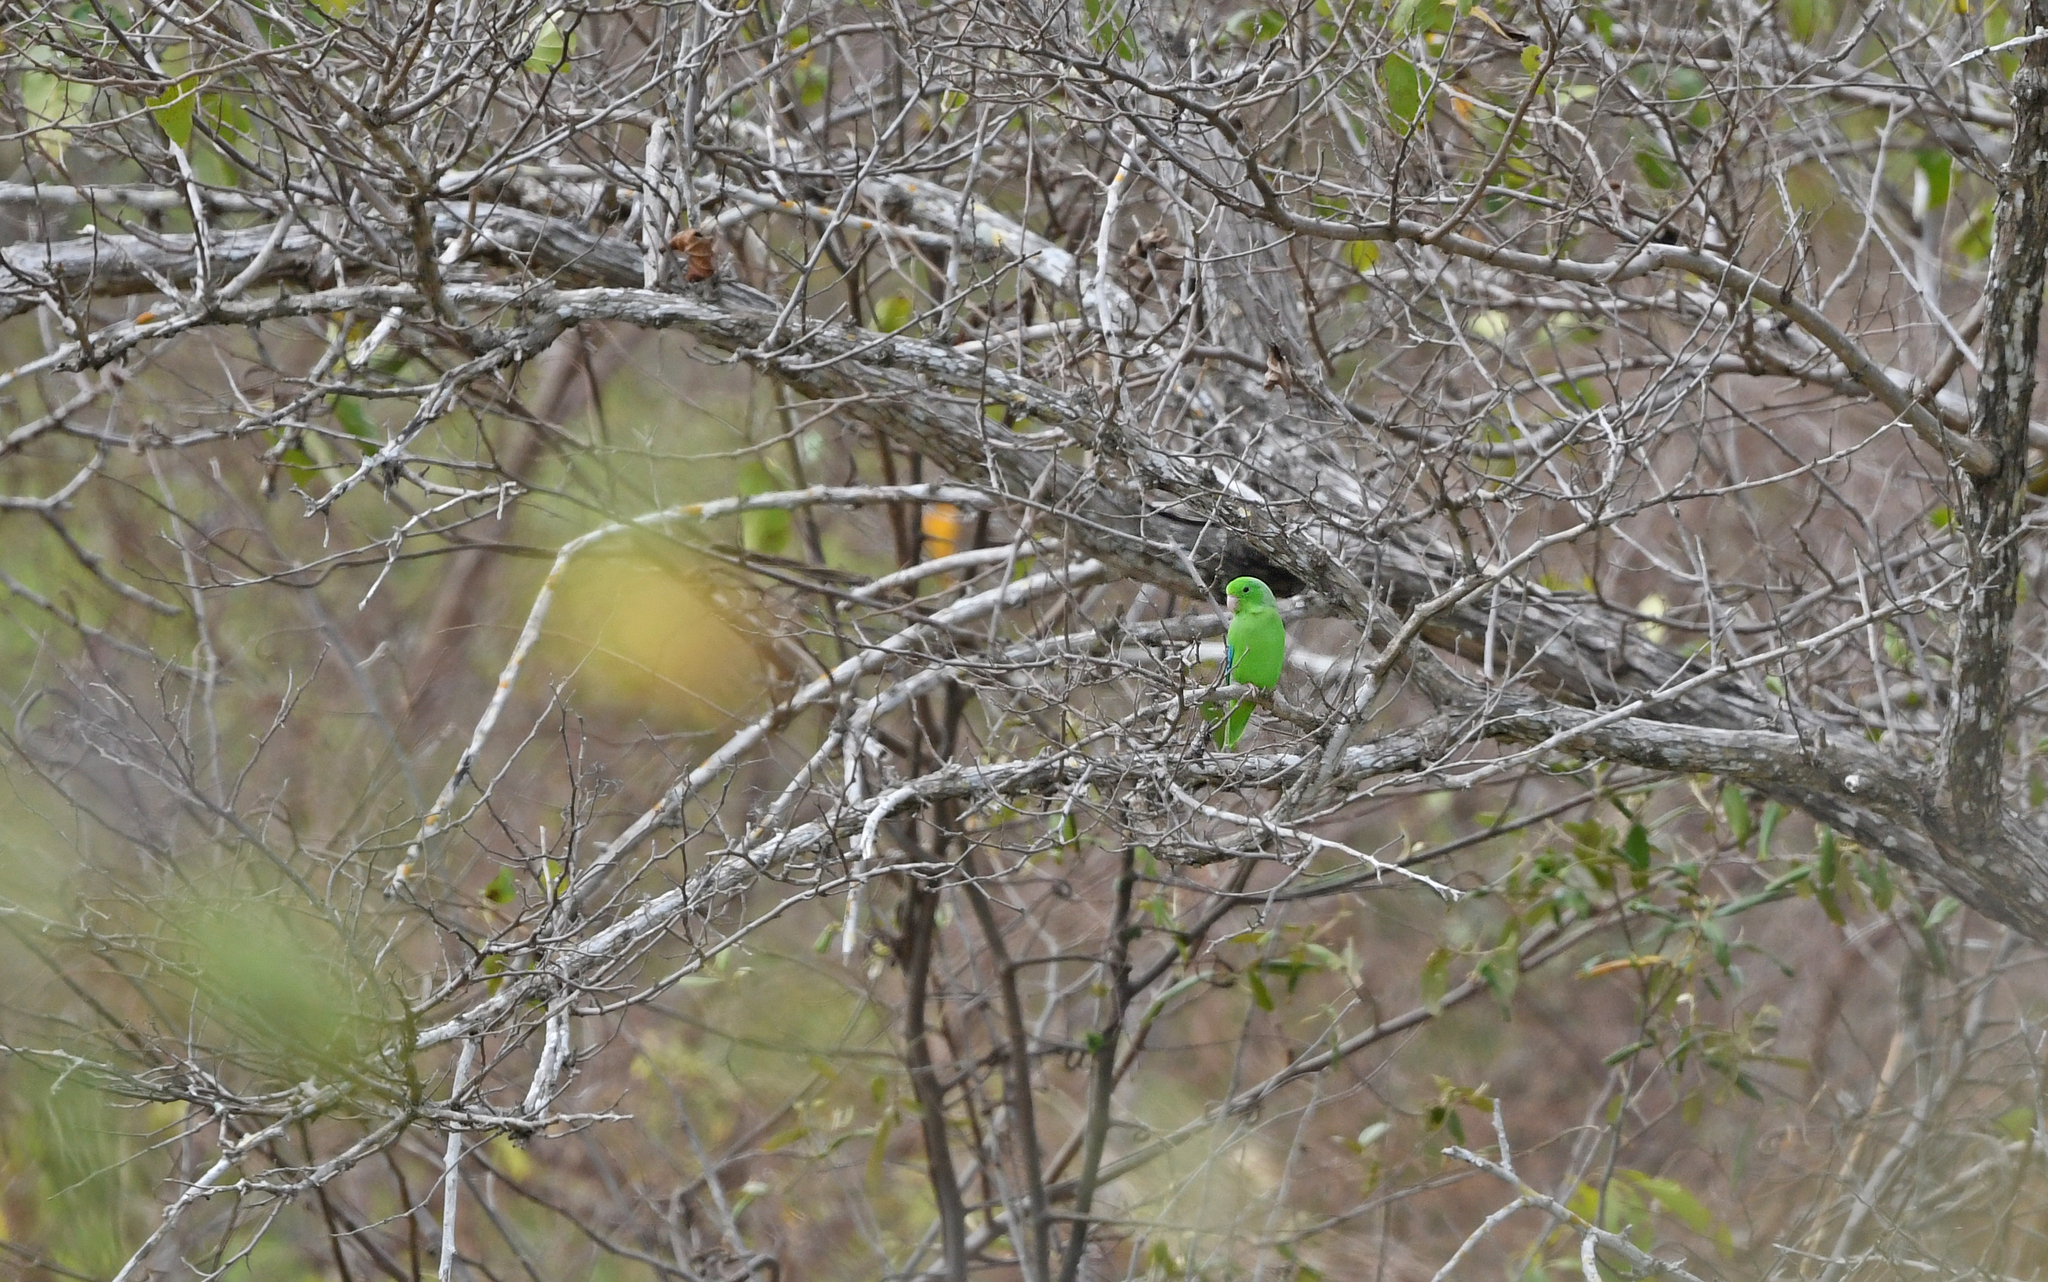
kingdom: Animalia
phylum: Chordata
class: Aves
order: Psittaciformes
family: Psittacidae
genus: Forpus
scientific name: Forpus passerinus
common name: Green-rumped parrotlet
